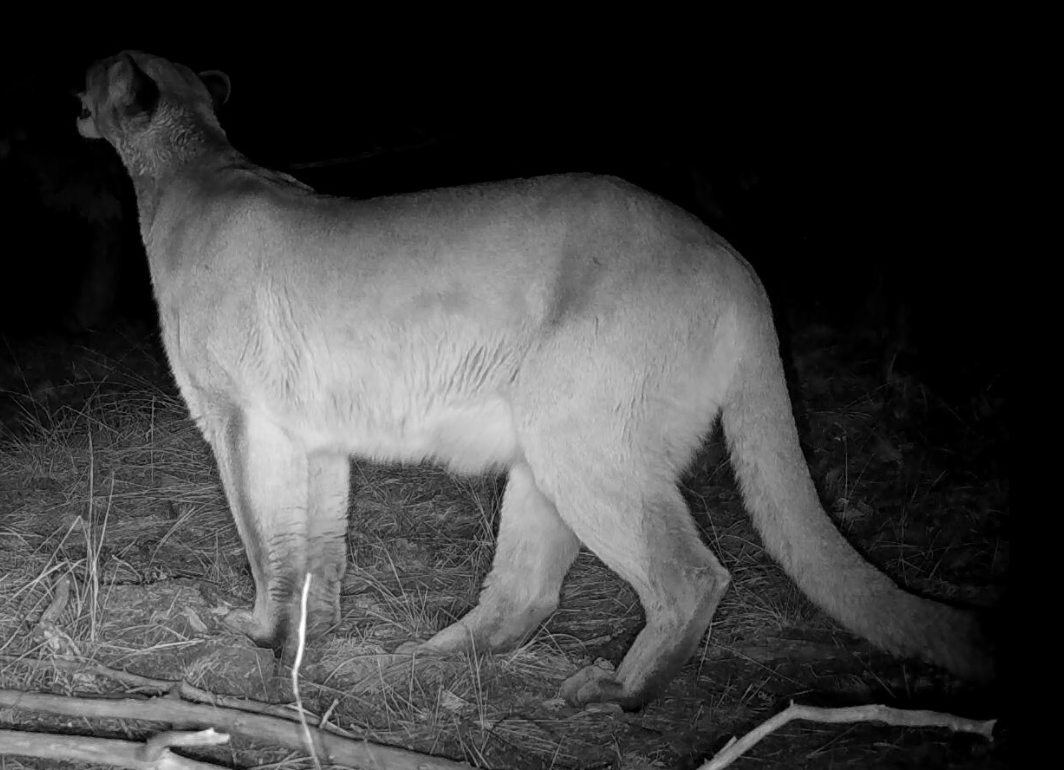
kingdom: Animalia
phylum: Chordata
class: Mammalia
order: Carnivora
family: Felidae
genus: Puma
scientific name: Puma concolor
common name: Puma
